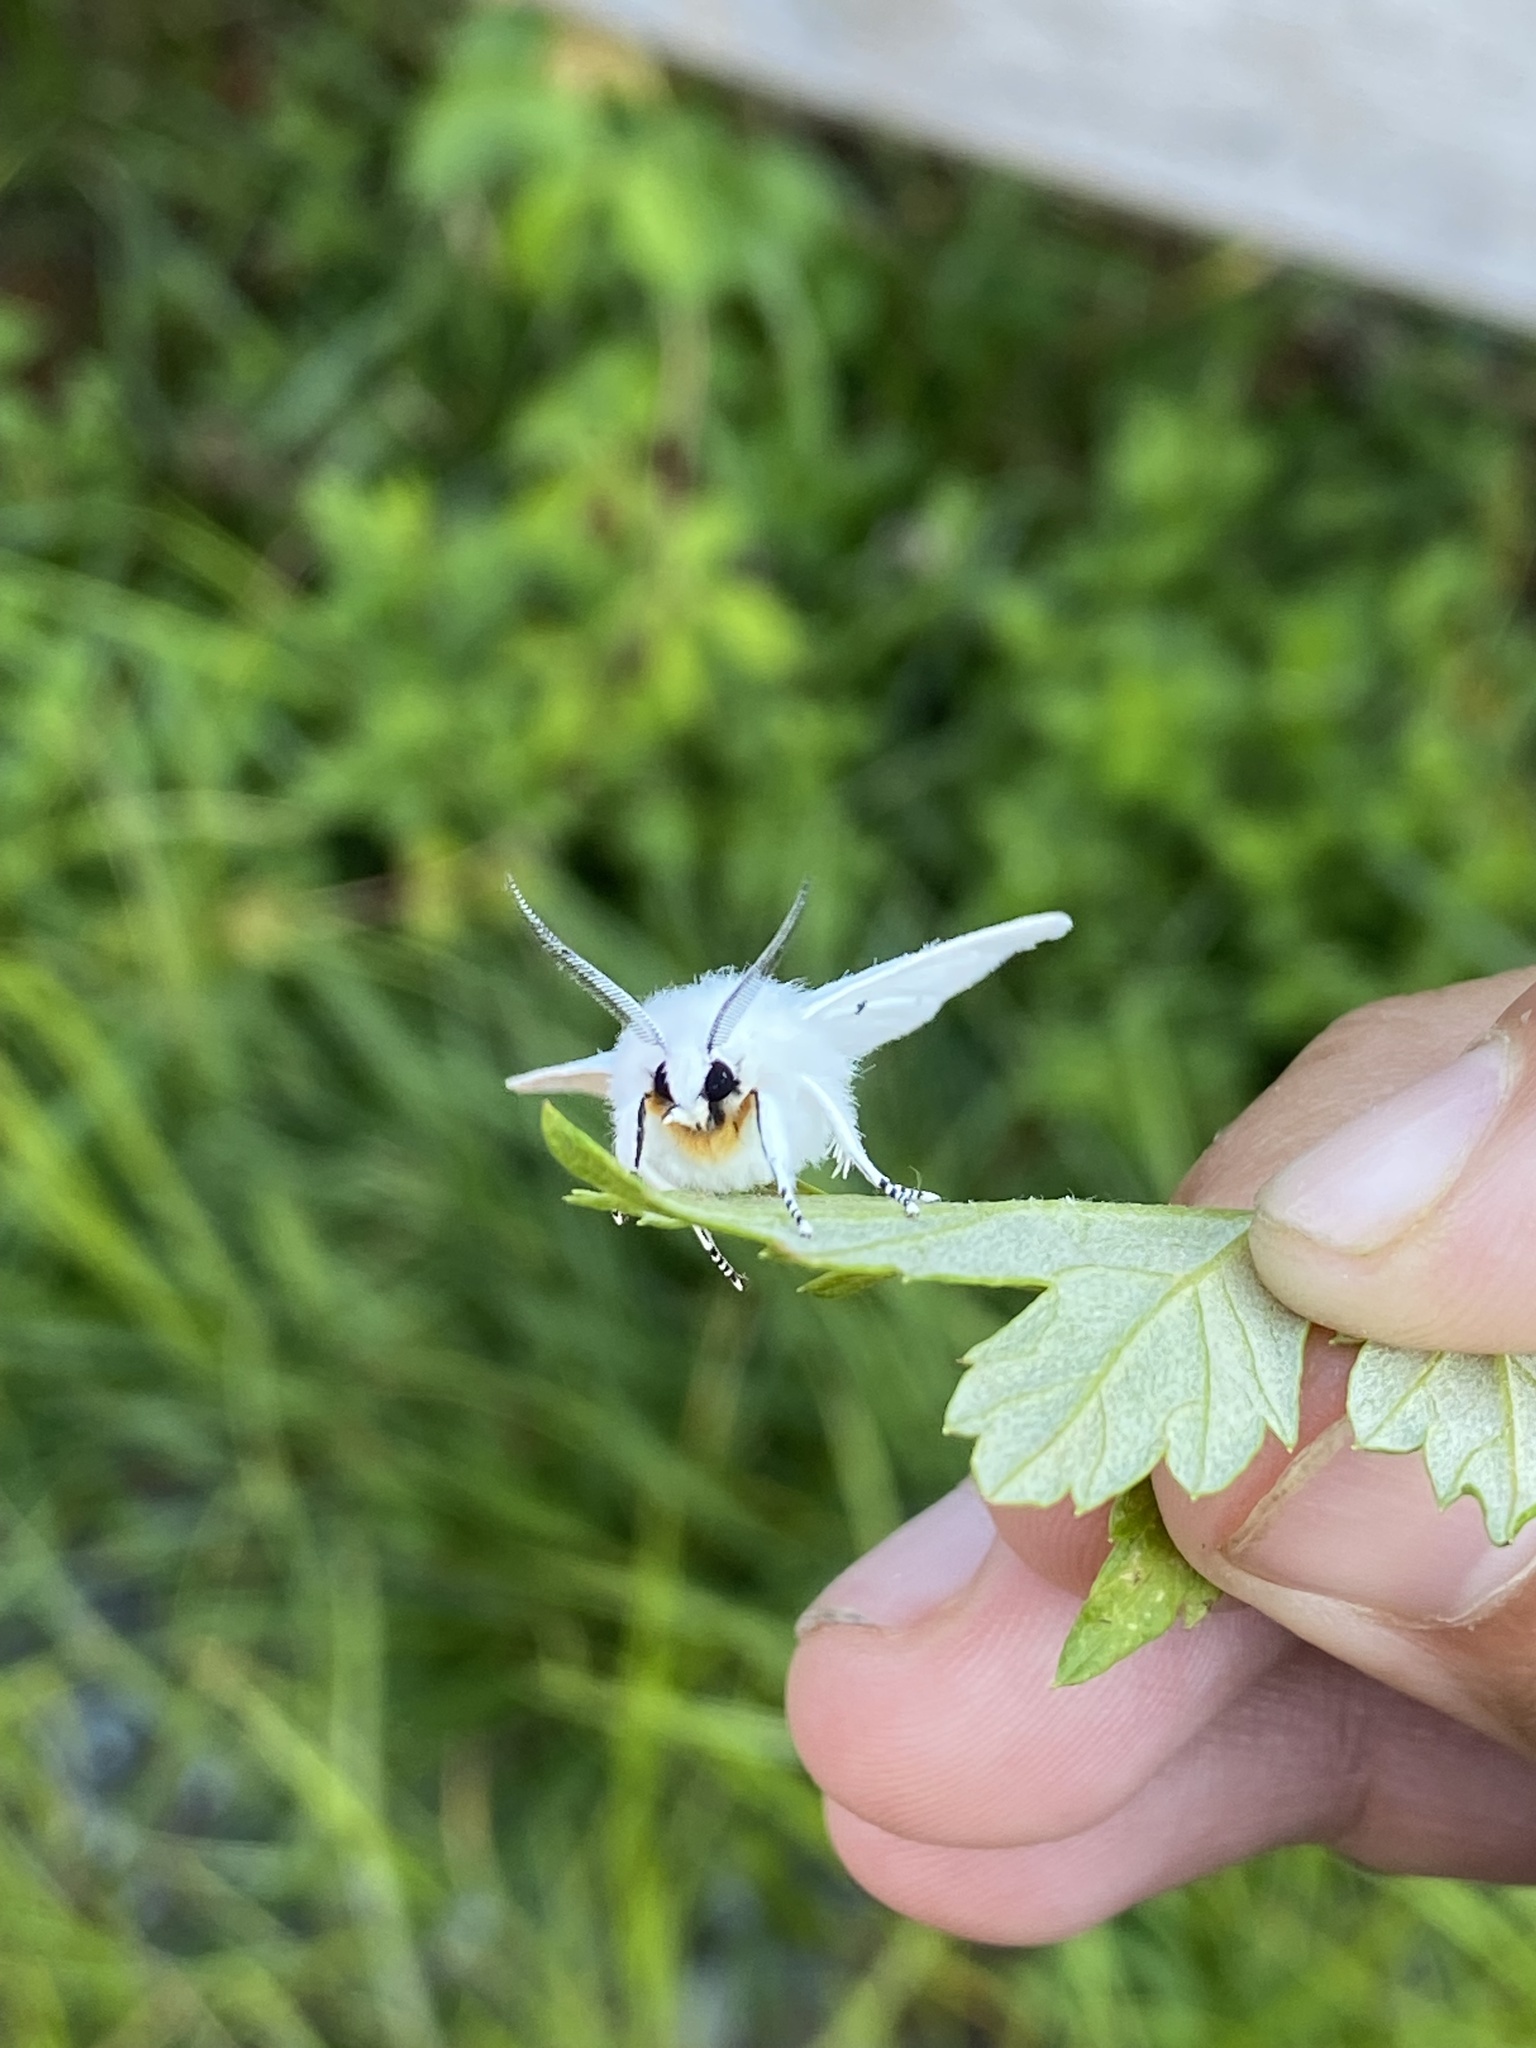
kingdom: Animalia
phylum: Arthropoda
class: Insecta
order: Lepidoptera
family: Erebidae
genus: Spilosoma
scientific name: Spilosoma virginica
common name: Virginia tiger moth
